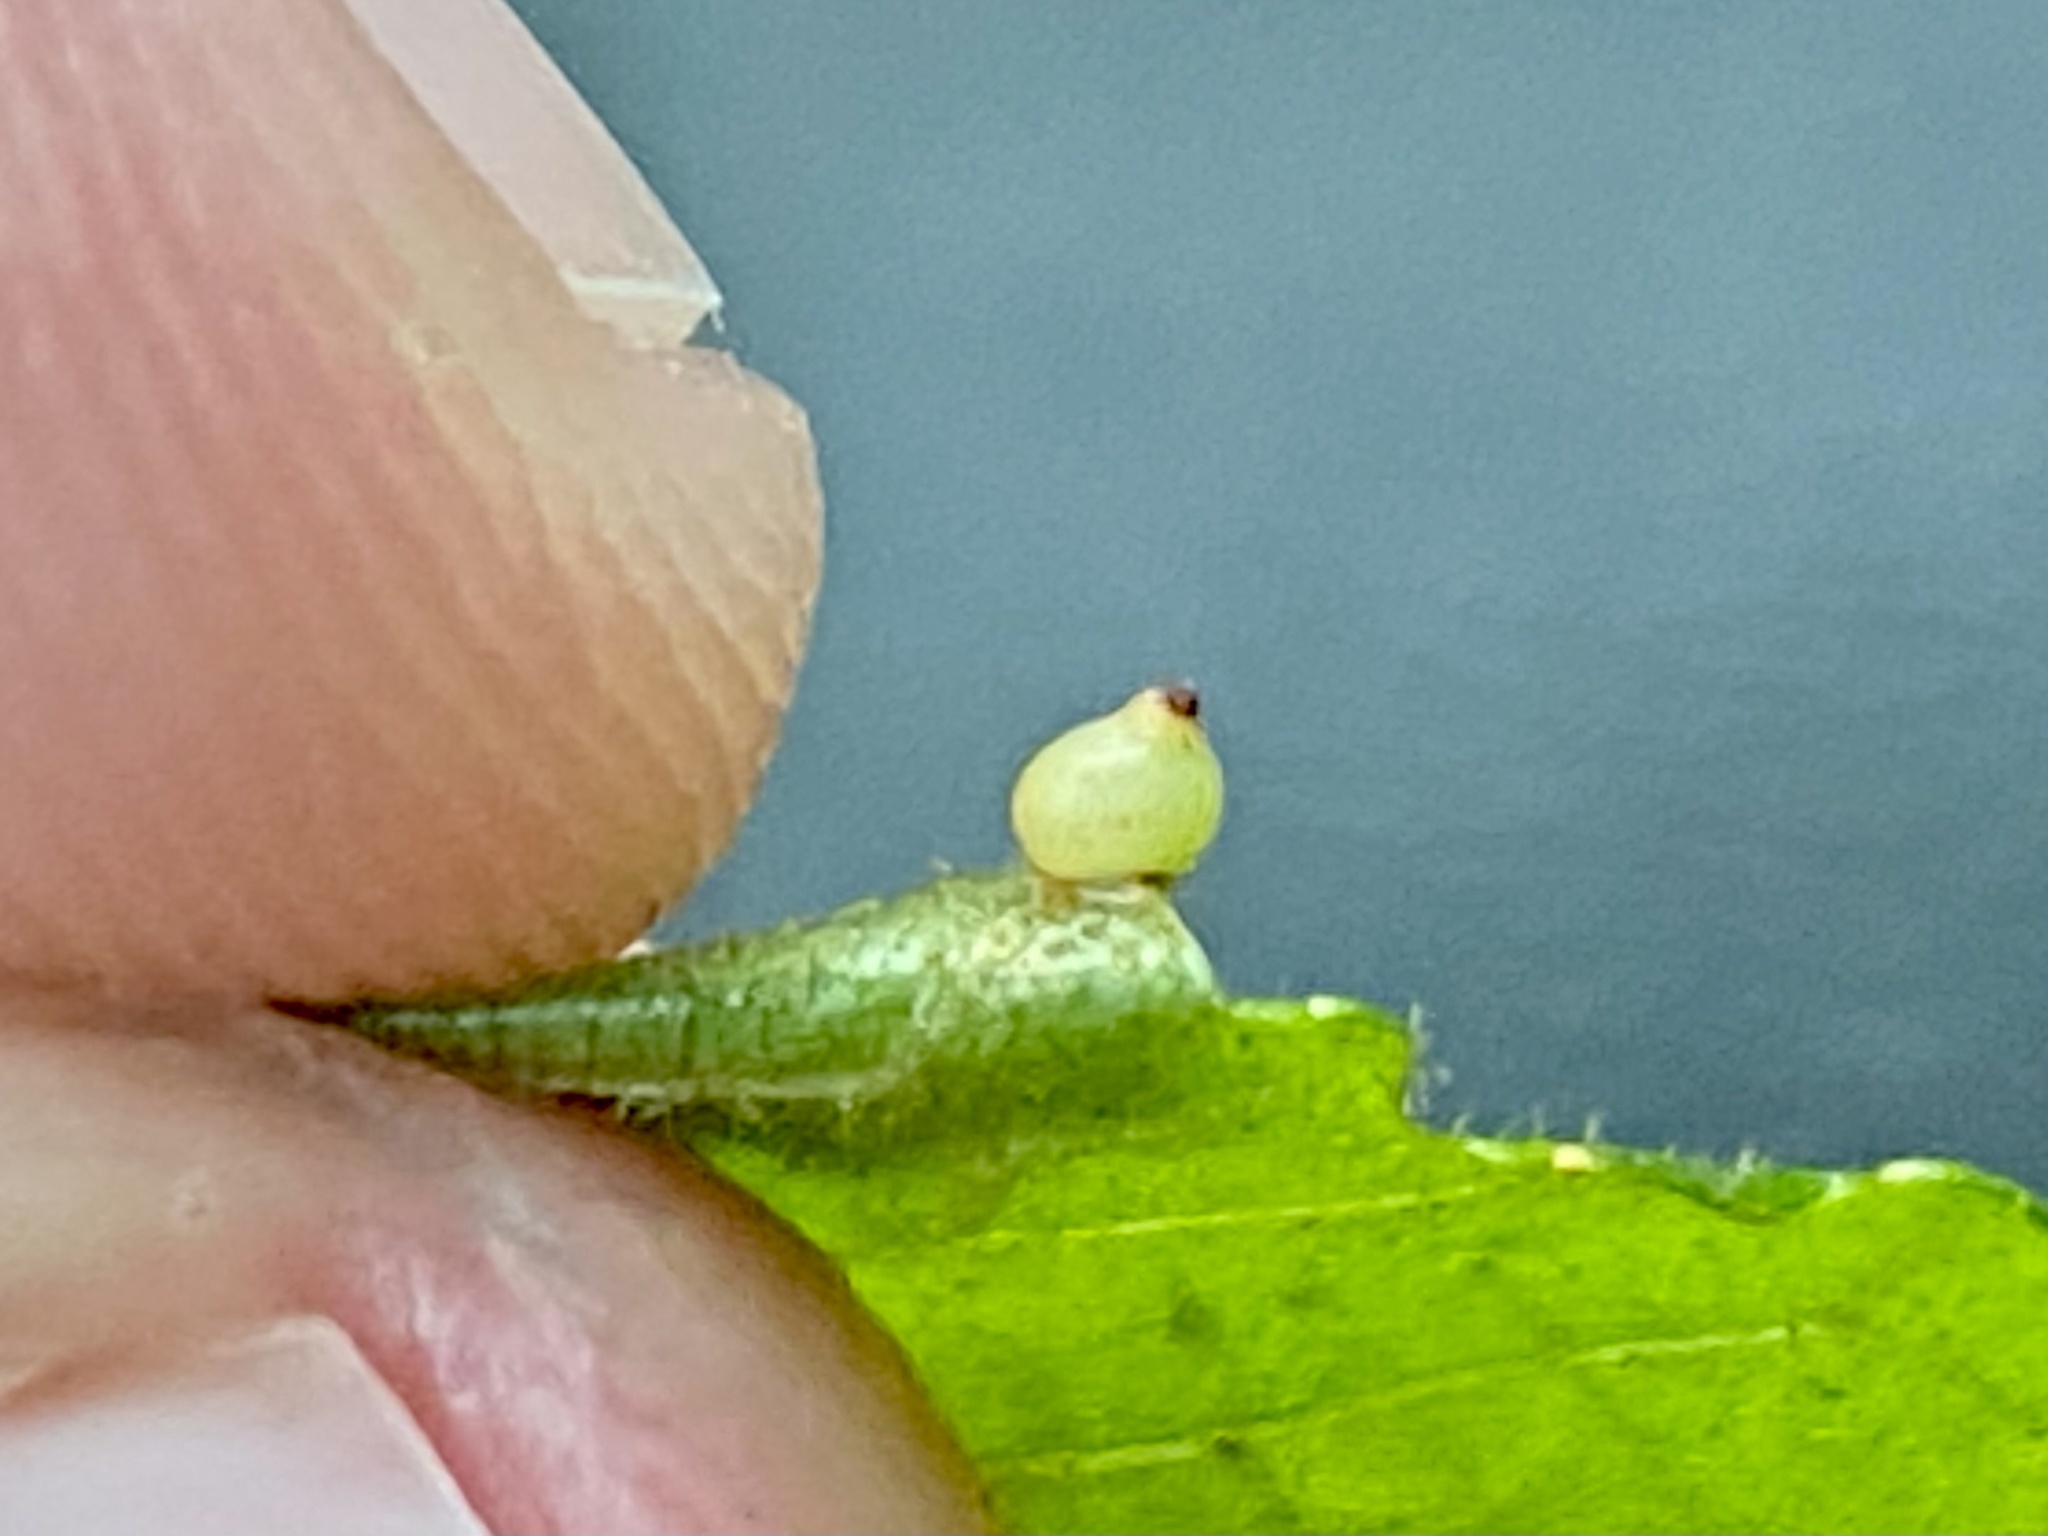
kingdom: Animalia
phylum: Arthropoda
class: Insecta
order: Diptera
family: Cecidomyiidae
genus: Caryomyia
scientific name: Caryomyia shmoo
